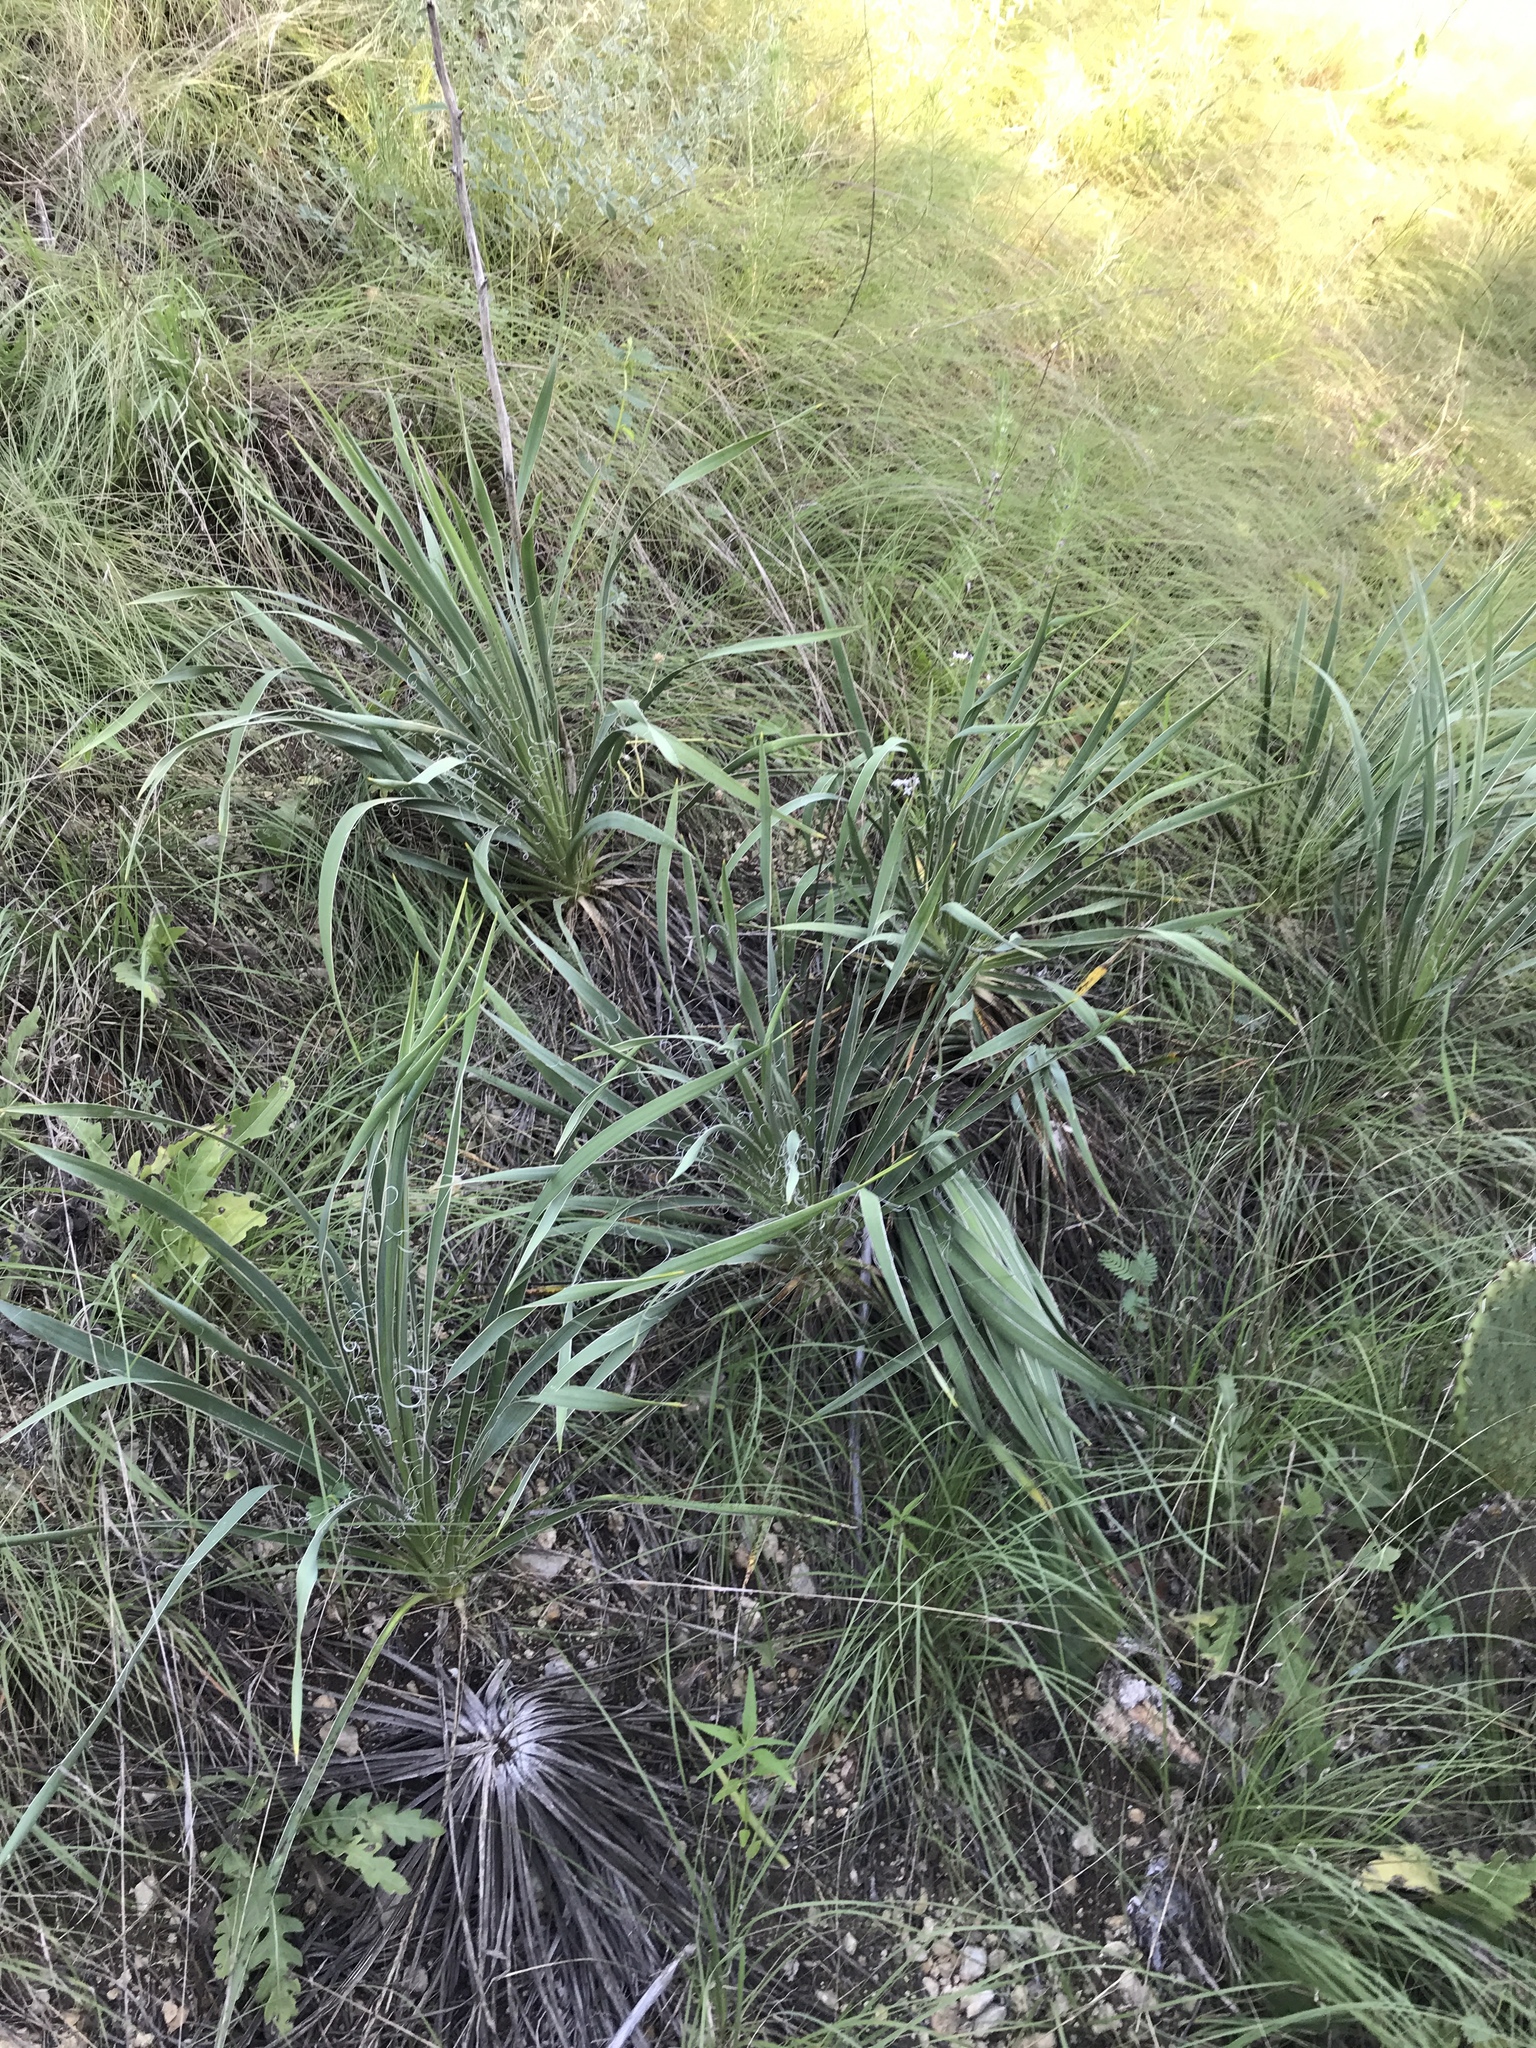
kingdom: Plantae
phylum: Tracheophyta
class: Liliopsida
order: Asparagales
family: Asparagaceae
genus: Yucca
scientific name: Yucca arkansana
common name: Arkansas yucca
